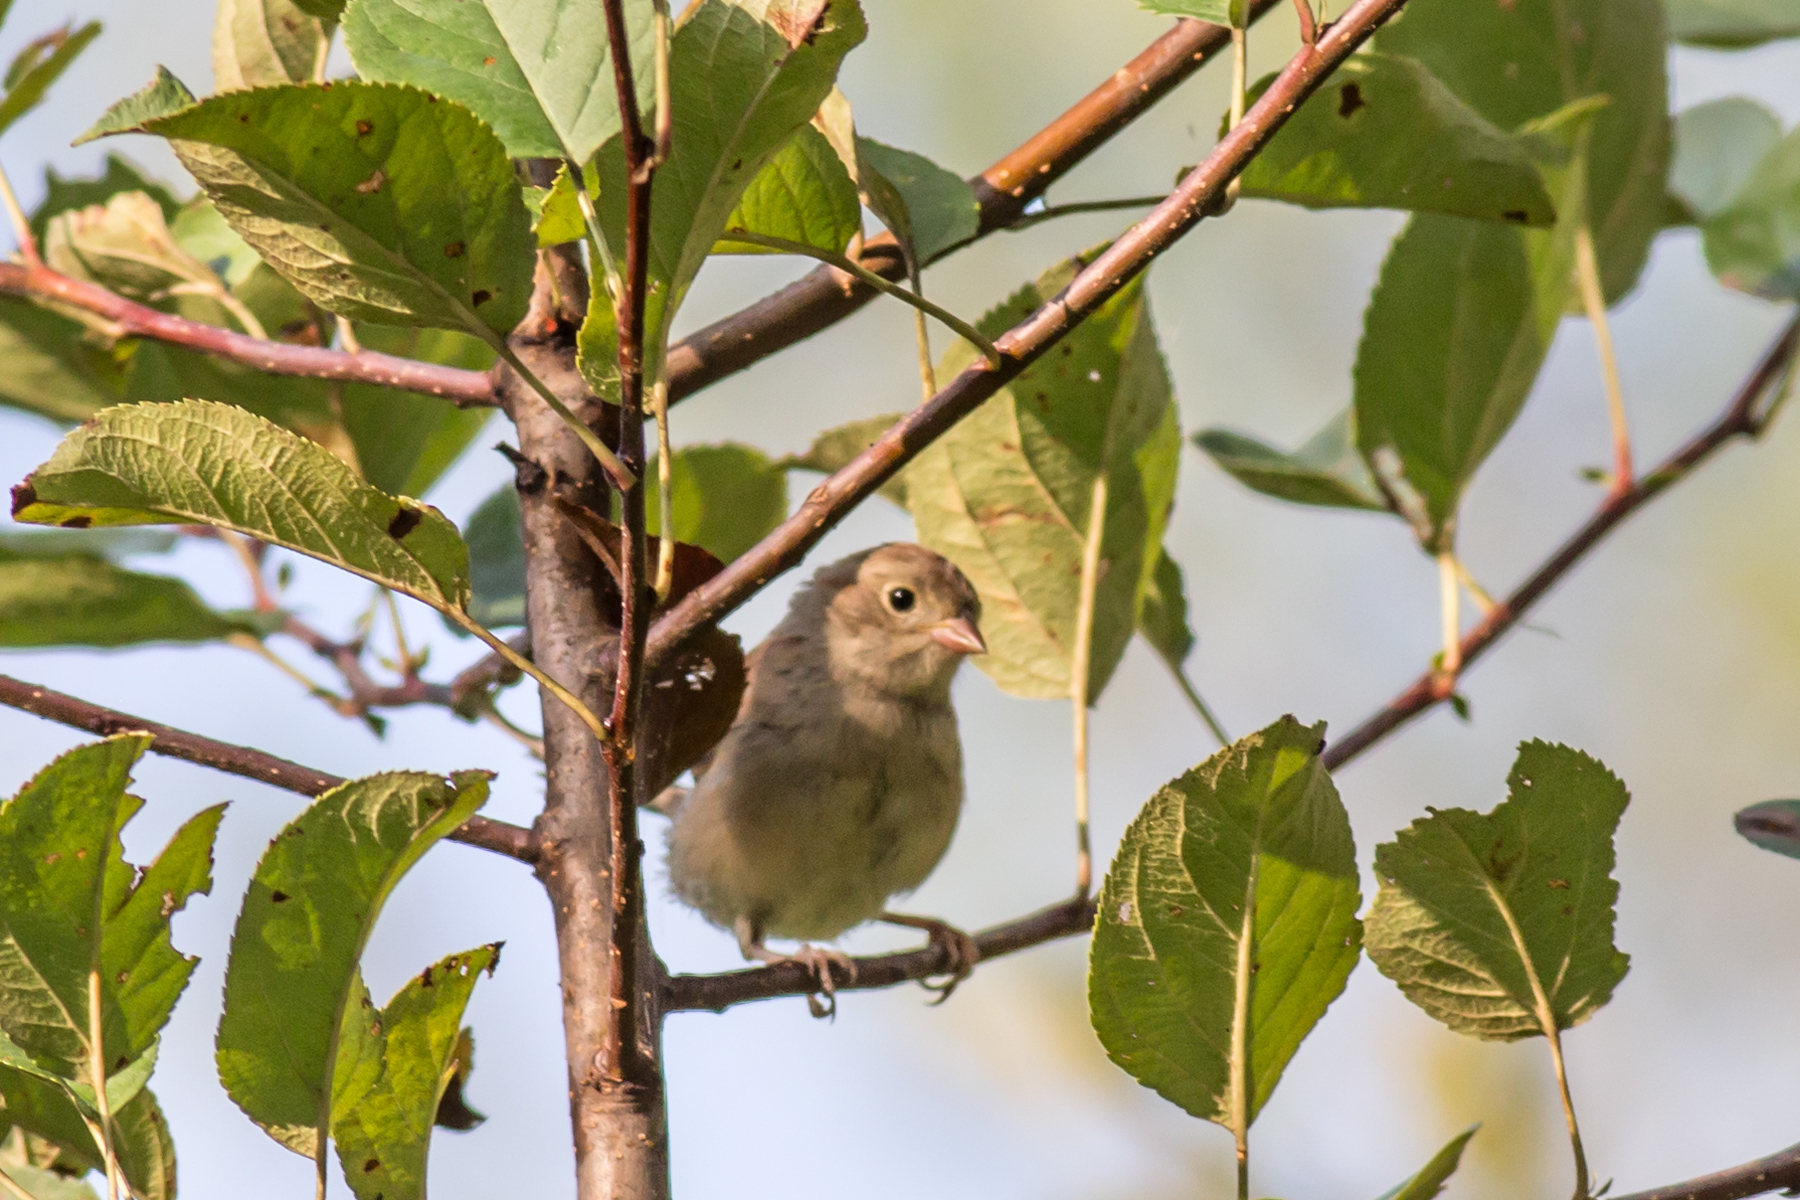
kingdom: Animalia
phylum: Chordata
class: Aves
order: Passeriformes
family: Passerellidae
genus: Spizella
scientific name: Spizella pusilla
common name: Field sparrow
